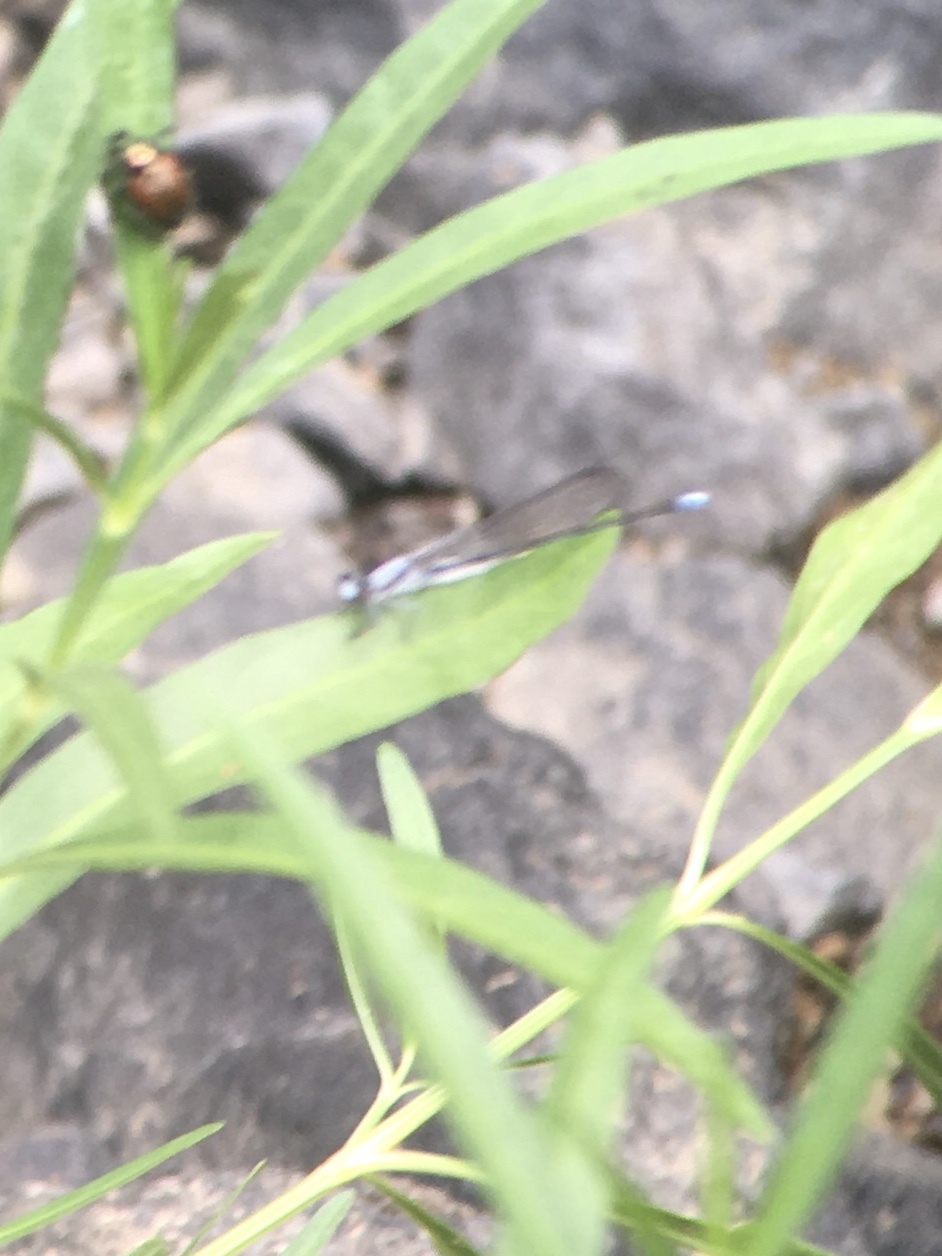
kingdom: Animalia
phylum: Arthropoda
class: Insecta
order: Odonata
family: Coenagrionidae
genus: Argia
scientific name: Argia moesta
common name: Powdered dancer
